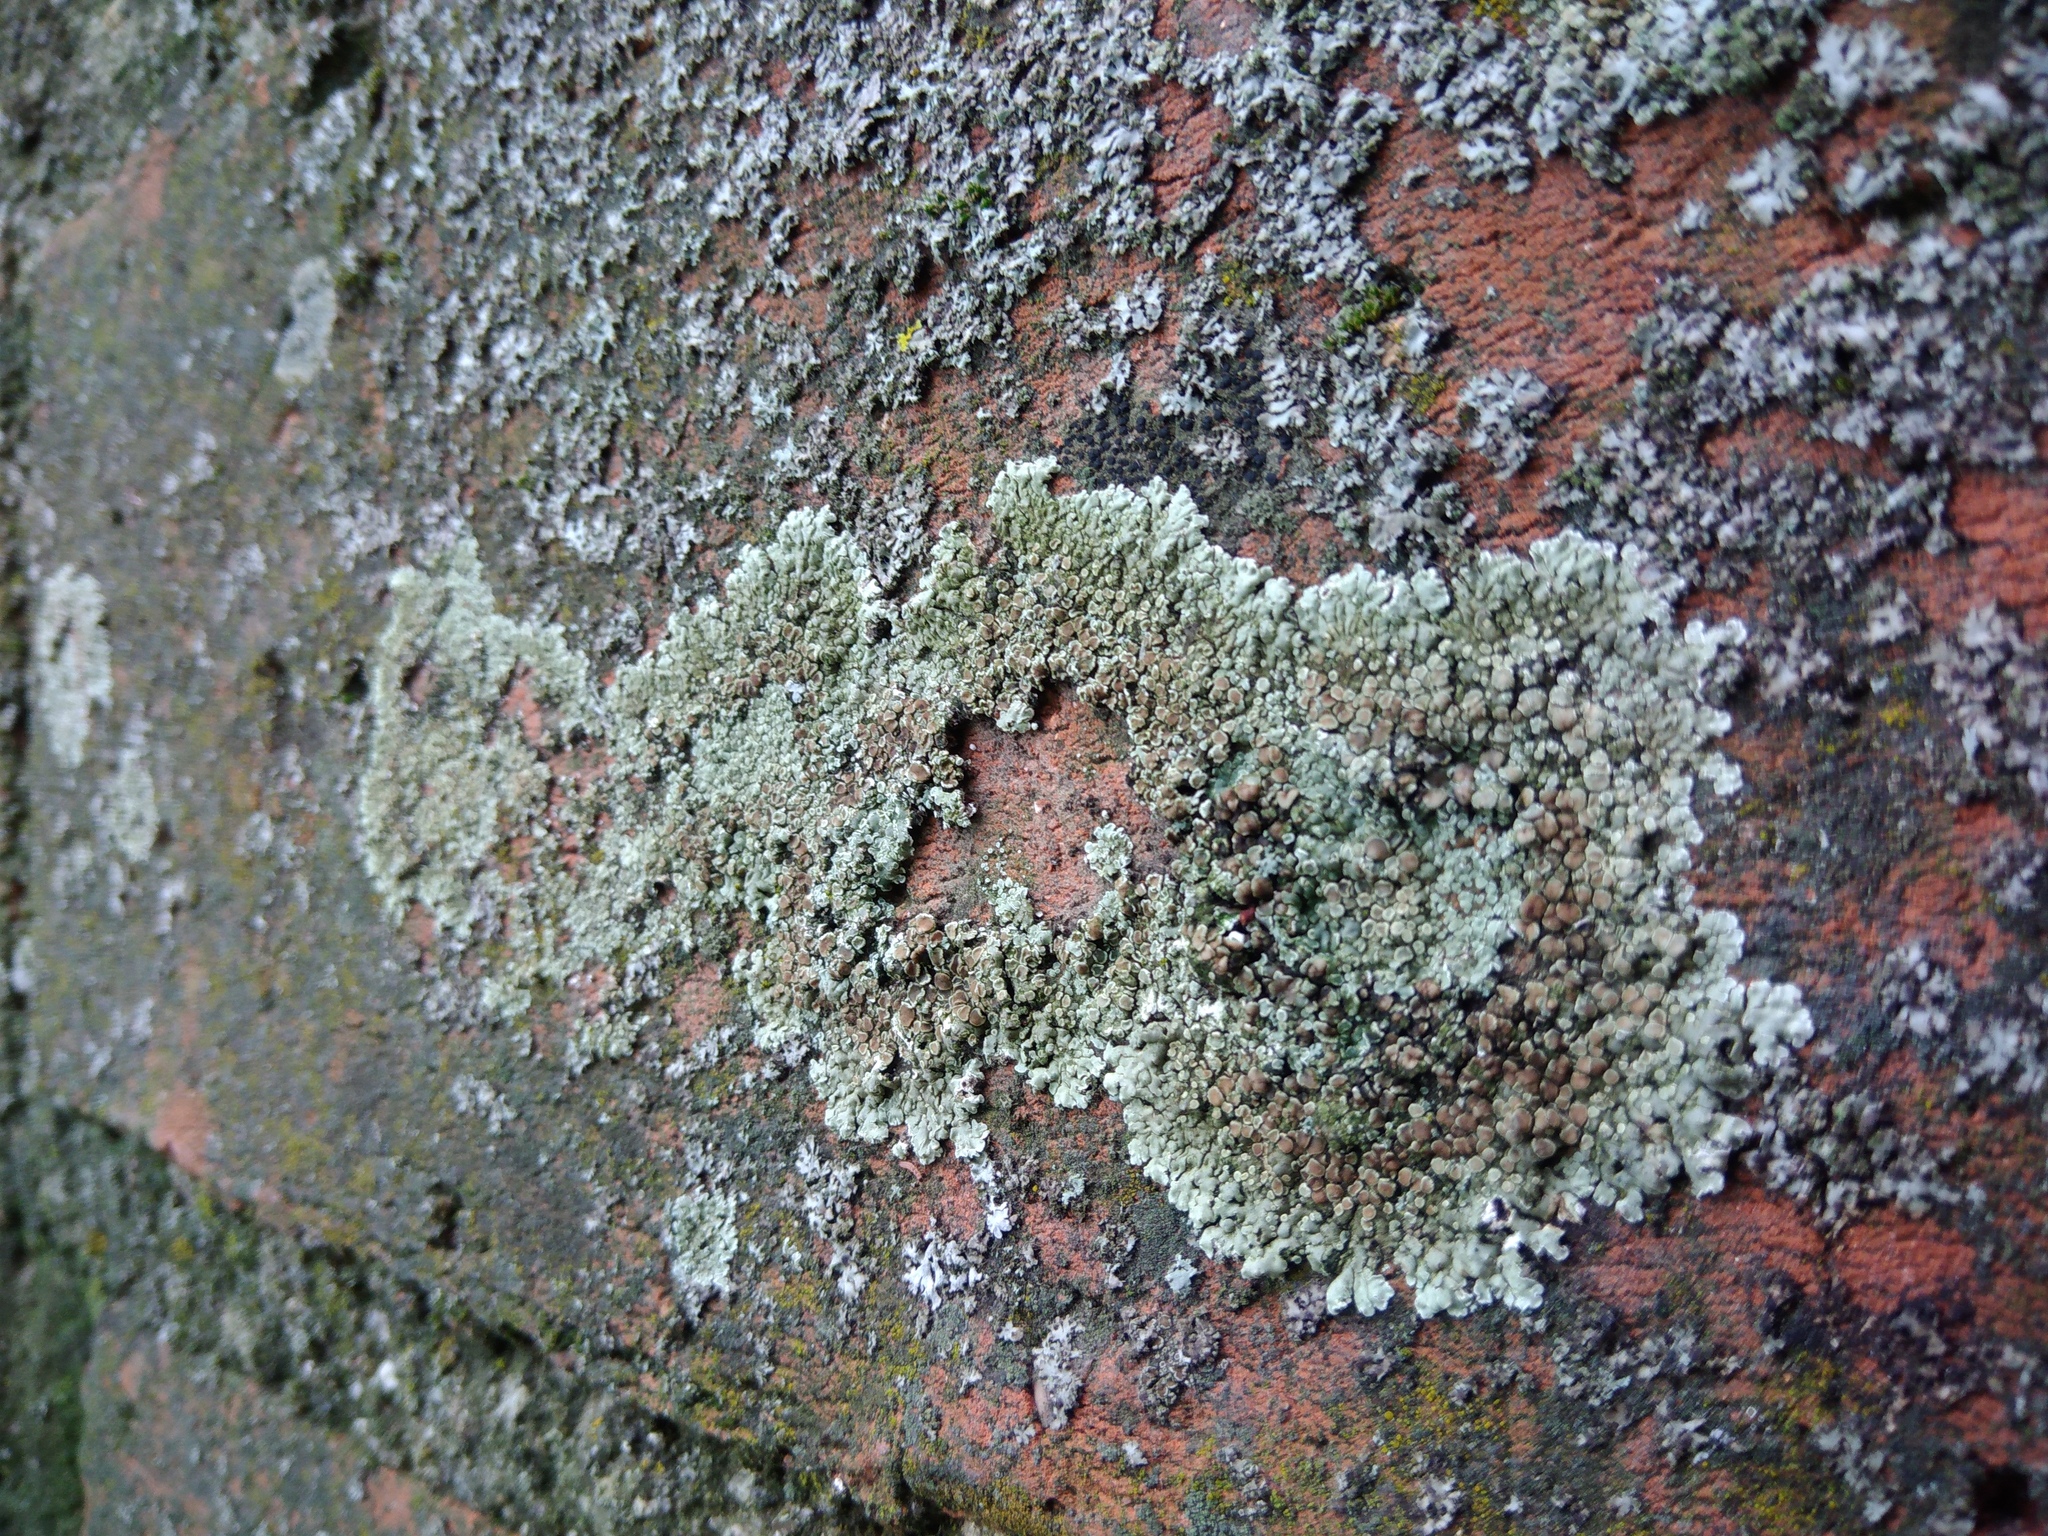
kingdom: Fungi
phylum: Ascomycota
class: Lecanoromycetes
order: Lecanorales
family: Lecanoraceae
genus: Protoparmeliopsis
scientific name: Protoparmeliopsis muralis
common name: Stonewall rim lichen
